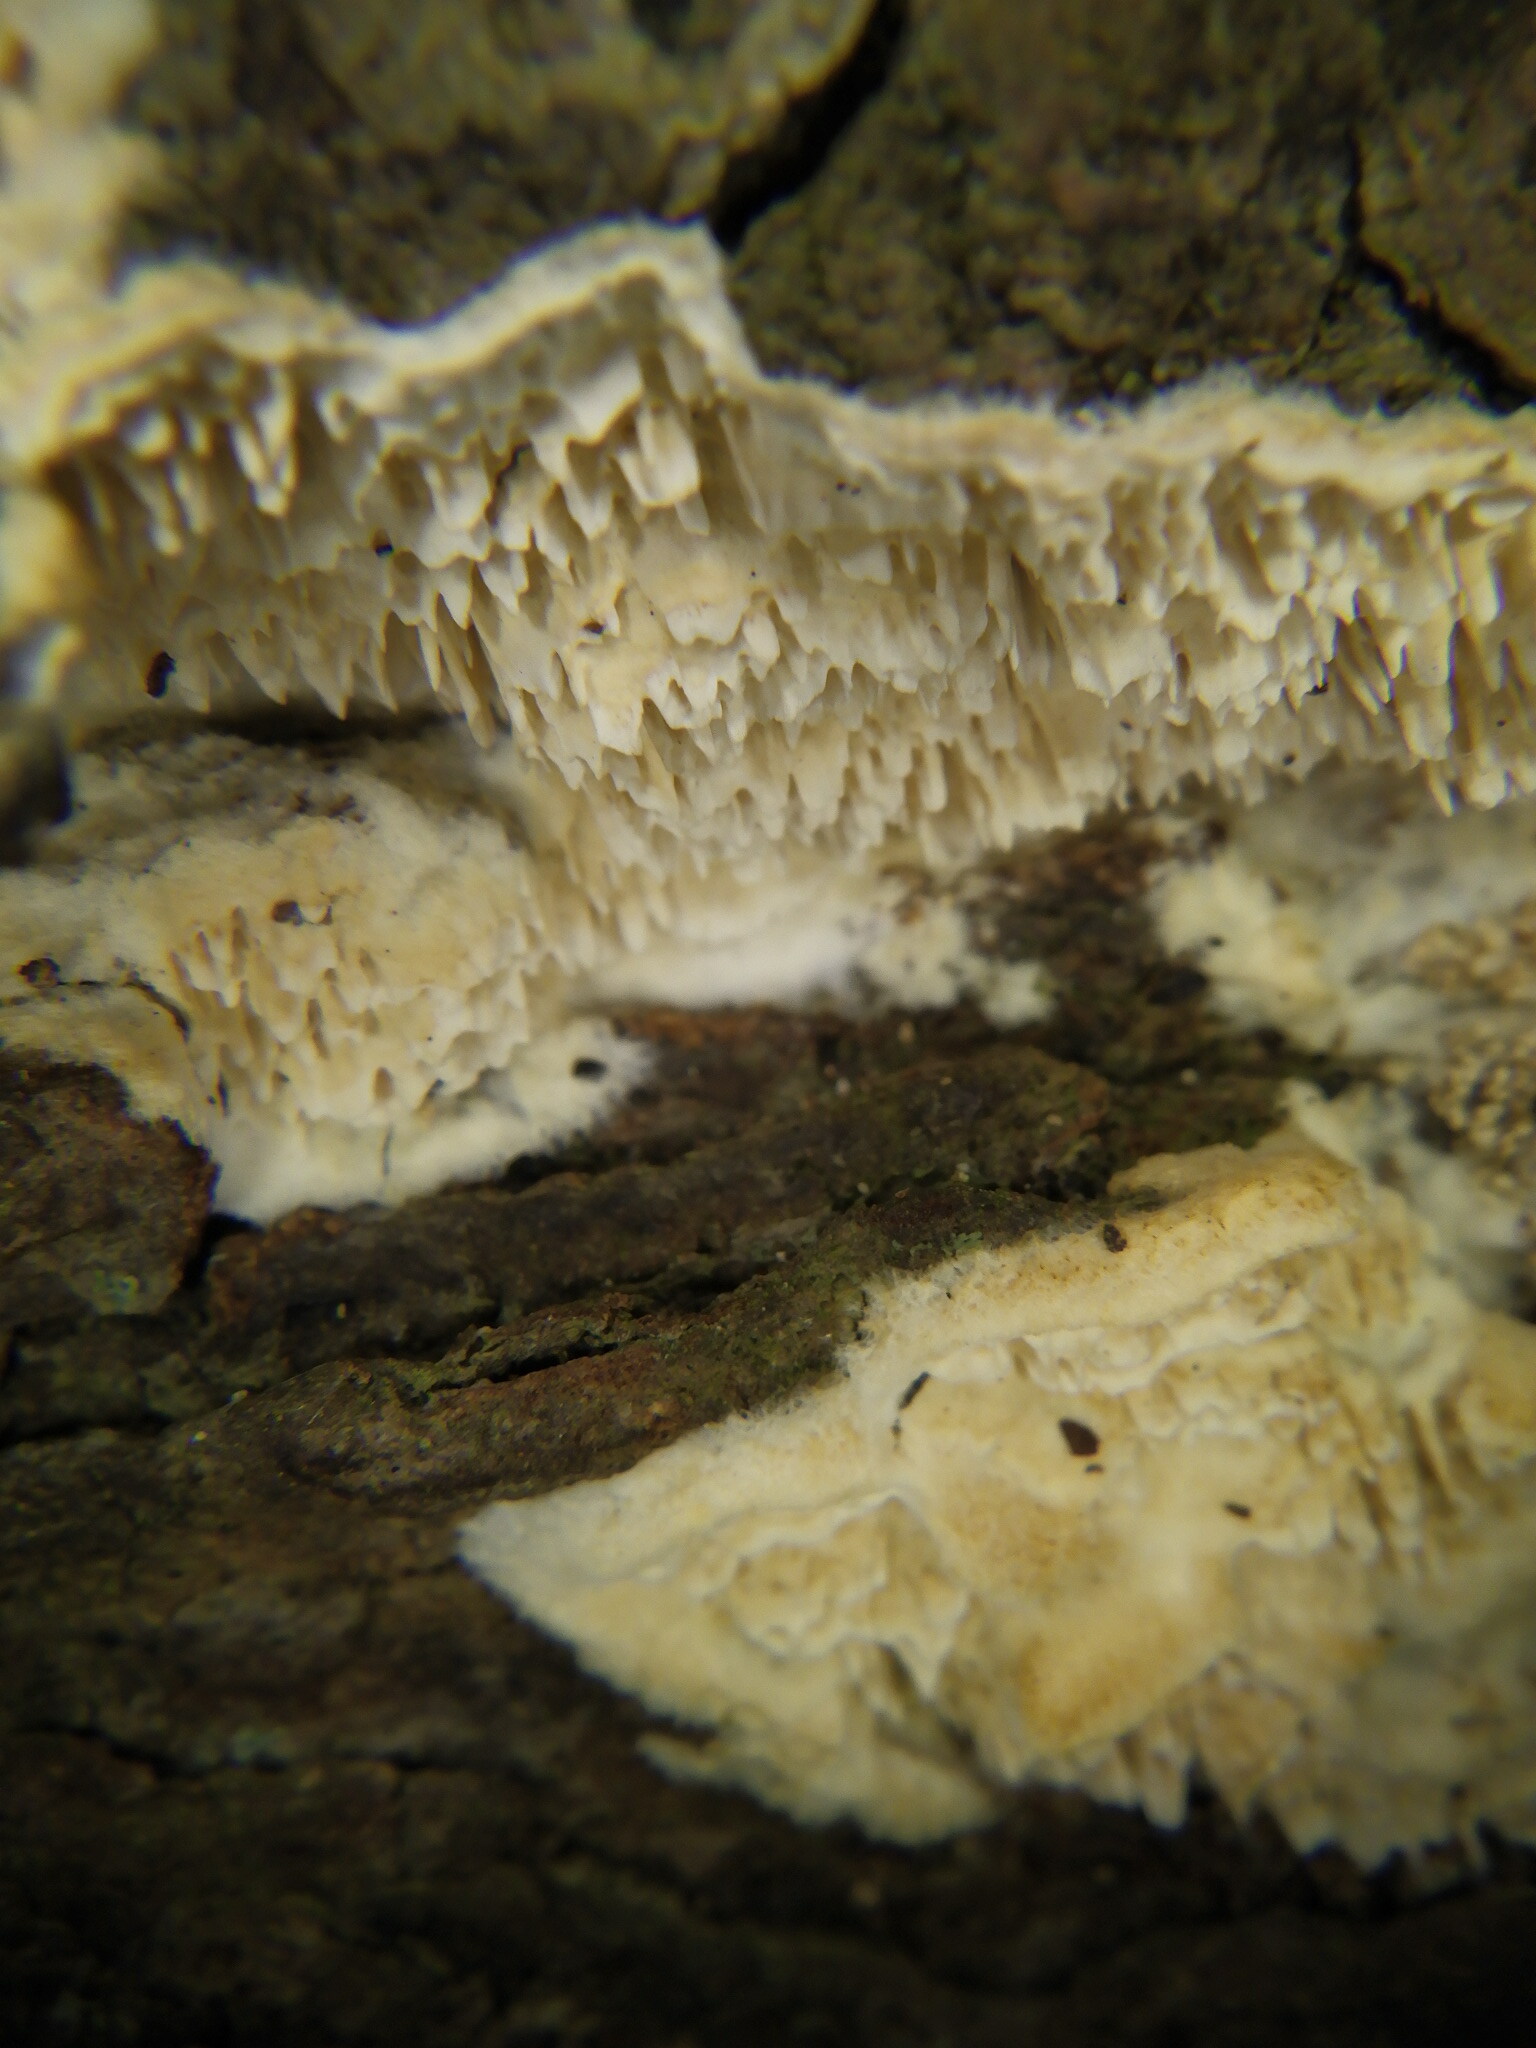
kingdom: Fungi
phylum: Basidiomycota
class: Agaricomycetes
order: Polyporales
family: Irpicaceae
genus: Irpex
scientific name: Irpex lacteus
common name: Milk-white toothed polypore
